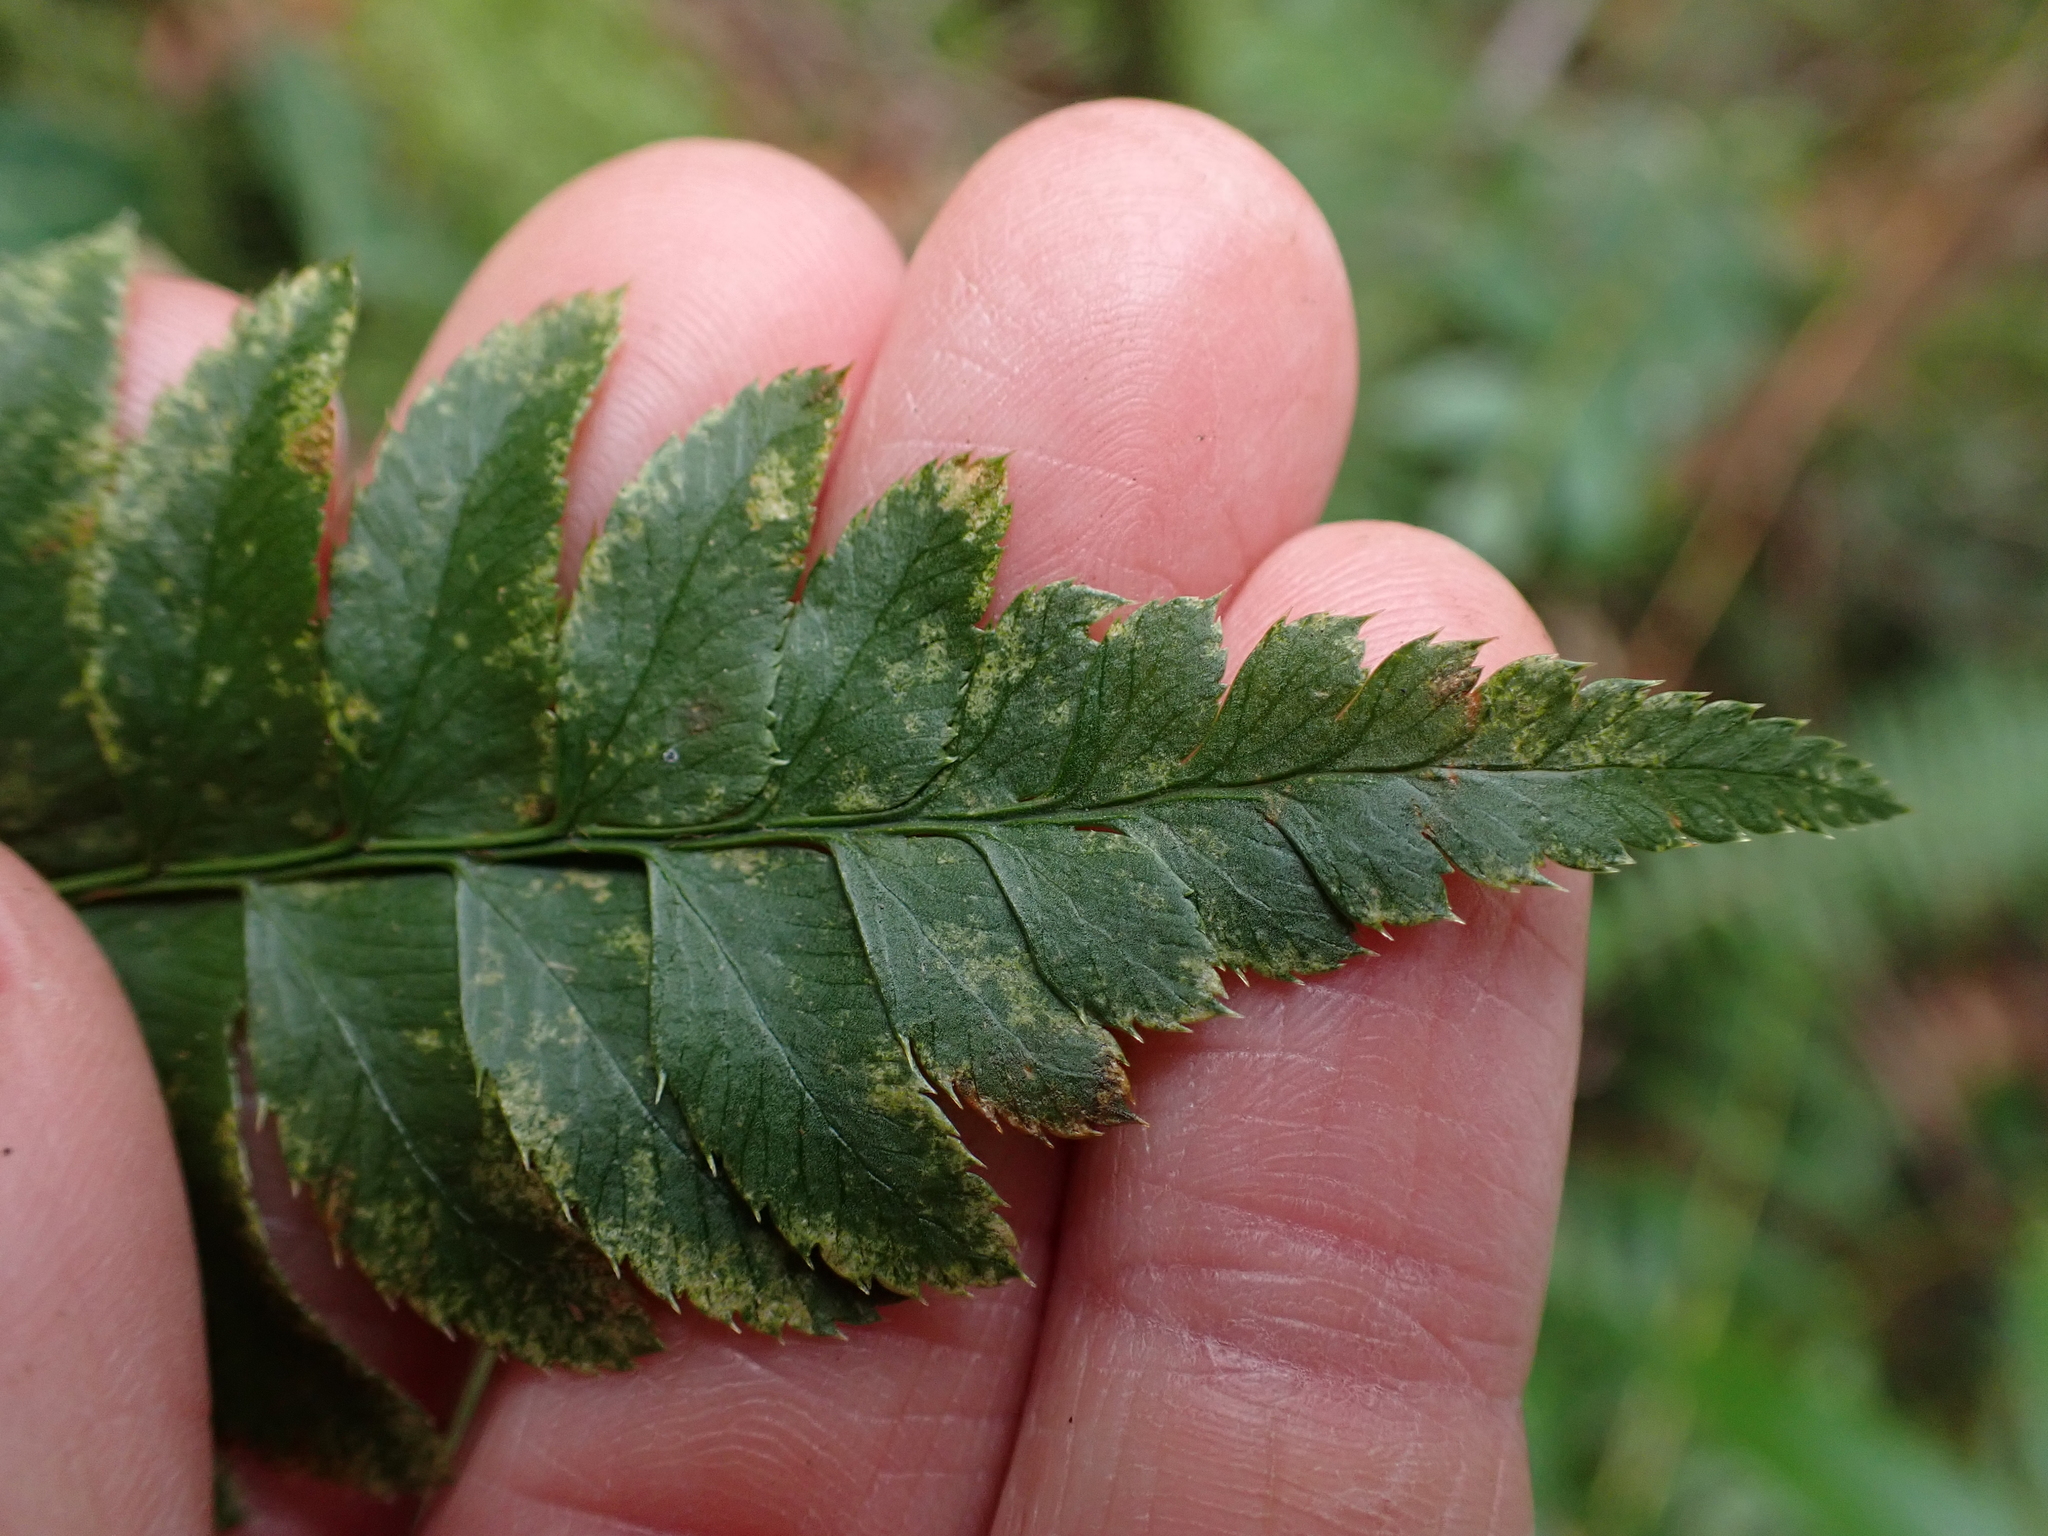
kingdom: Plantae
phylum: Tracheophyta
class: Polypodiopsida
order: Polypodiales
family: Dryopteridaceae
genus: Polystichum
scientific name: Polystichum munitum
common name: Western sword-fern
